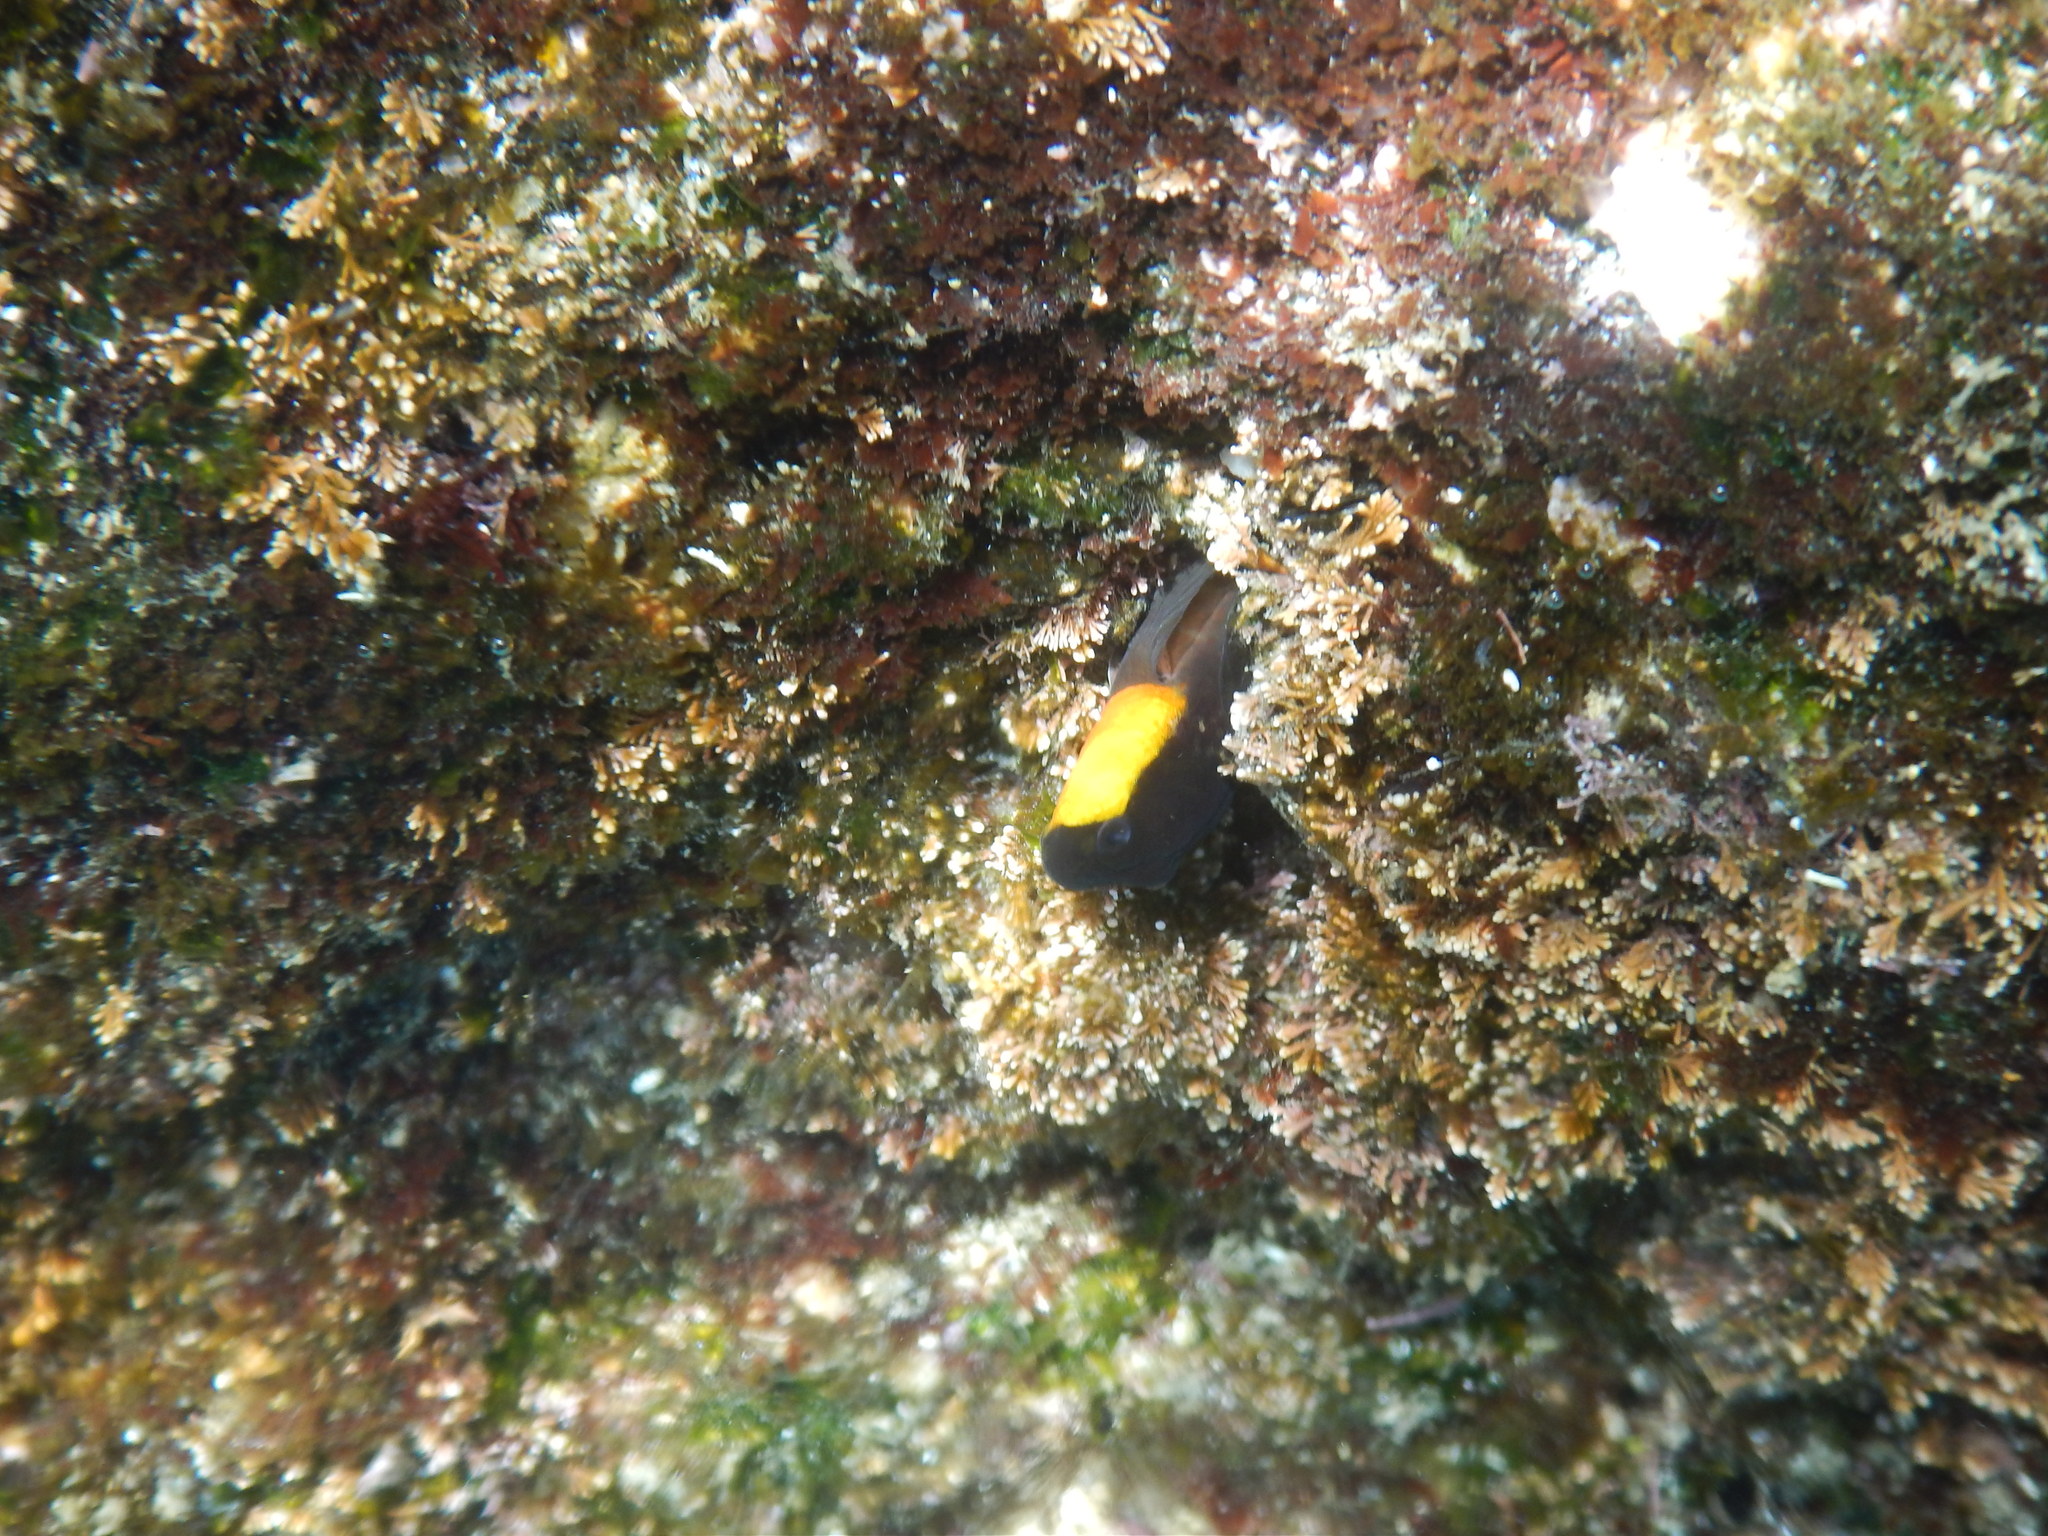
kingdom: Animalia
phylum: Chordata
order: Perciformes
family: Blenniidae
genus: Microlipophrys
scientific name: Microlipophrys canevae
